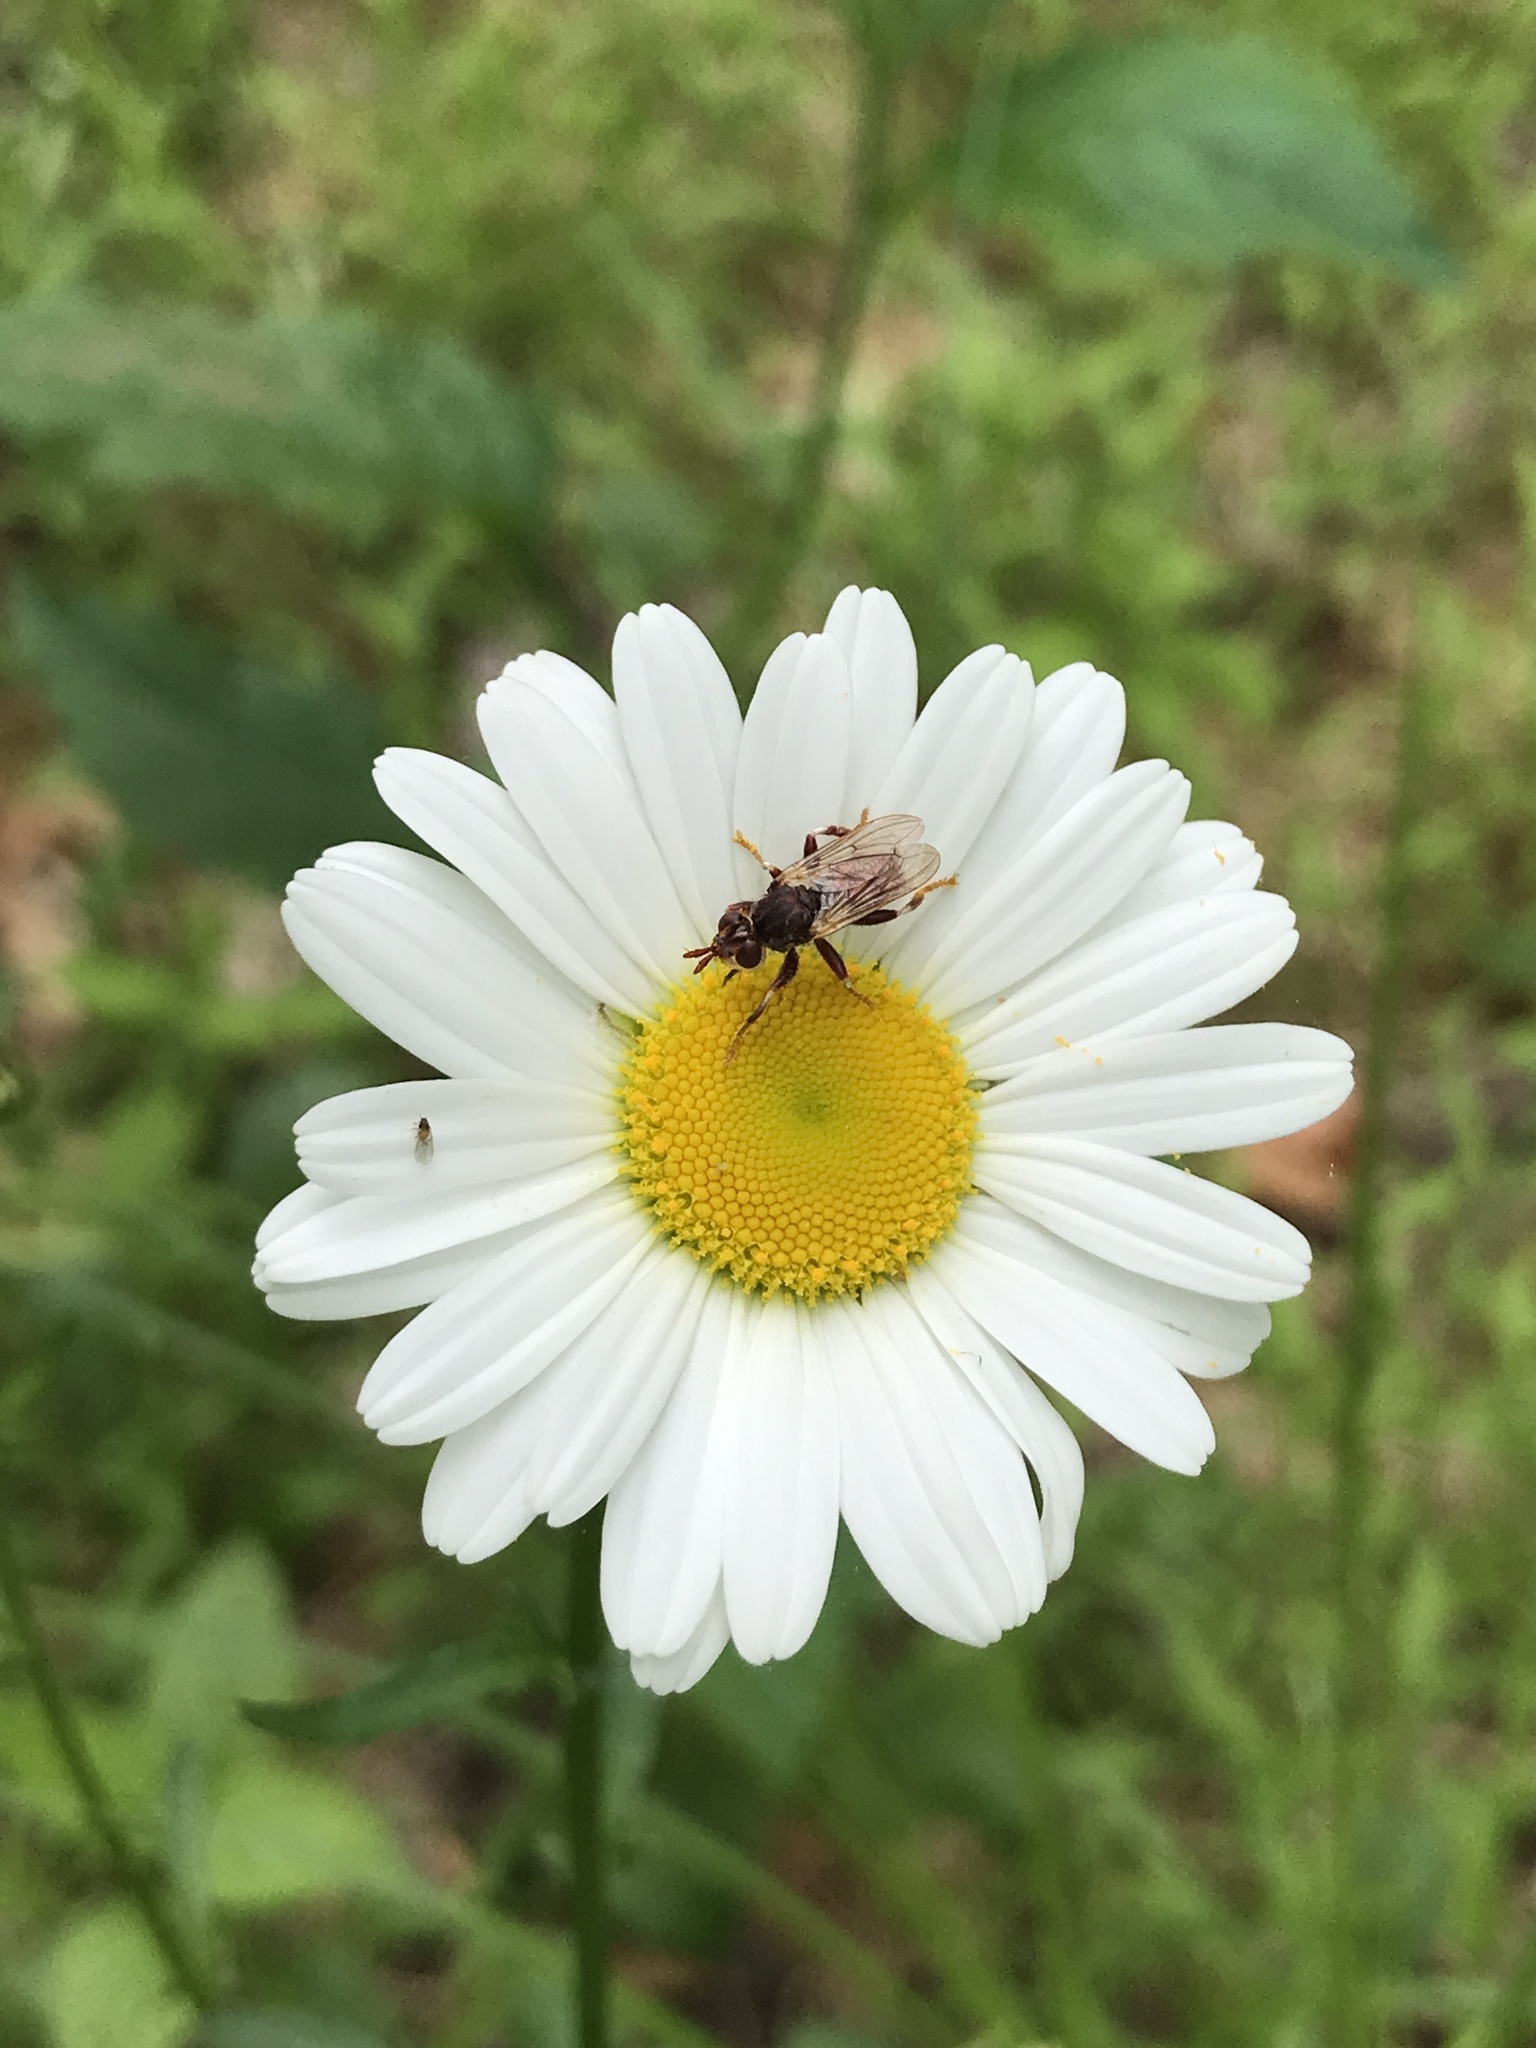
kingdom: Animalia
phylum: Arthropoda
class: Insecta
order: Diptera
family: Conopidae
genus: Myopa
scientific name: Myopa clausa
